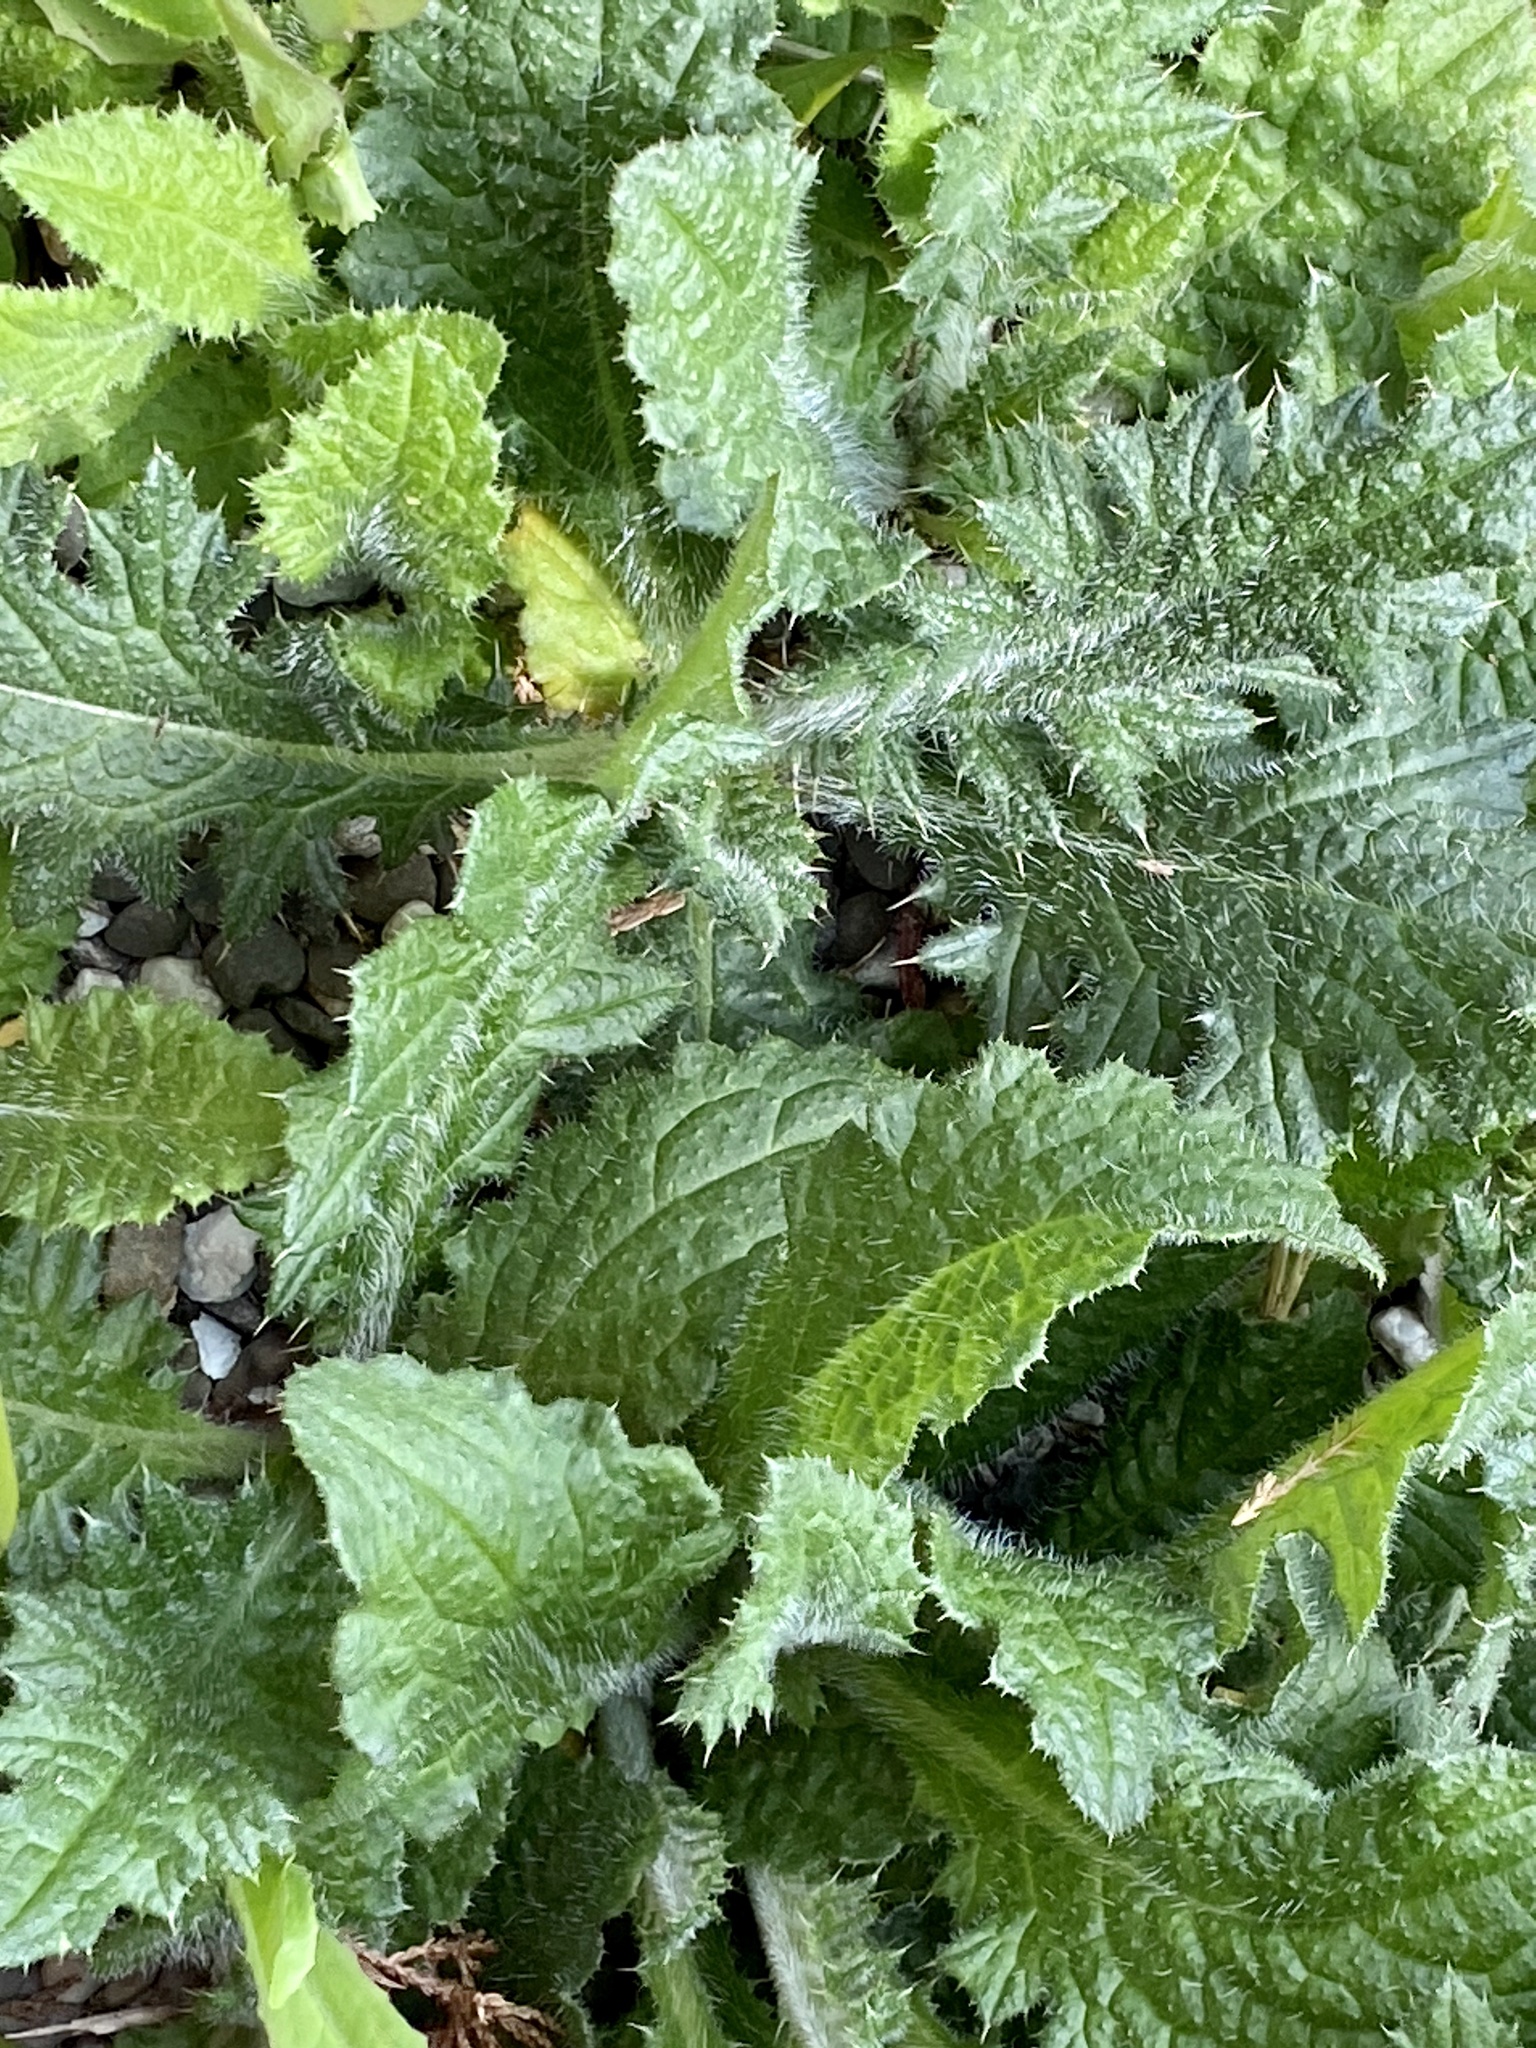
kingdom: Plantae
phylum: Tracheophyta
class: Magnoliopsida
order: Asterales
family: Asteraceae
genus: Cirsium
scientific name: Cirsium vulgare
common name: Bull thistle
